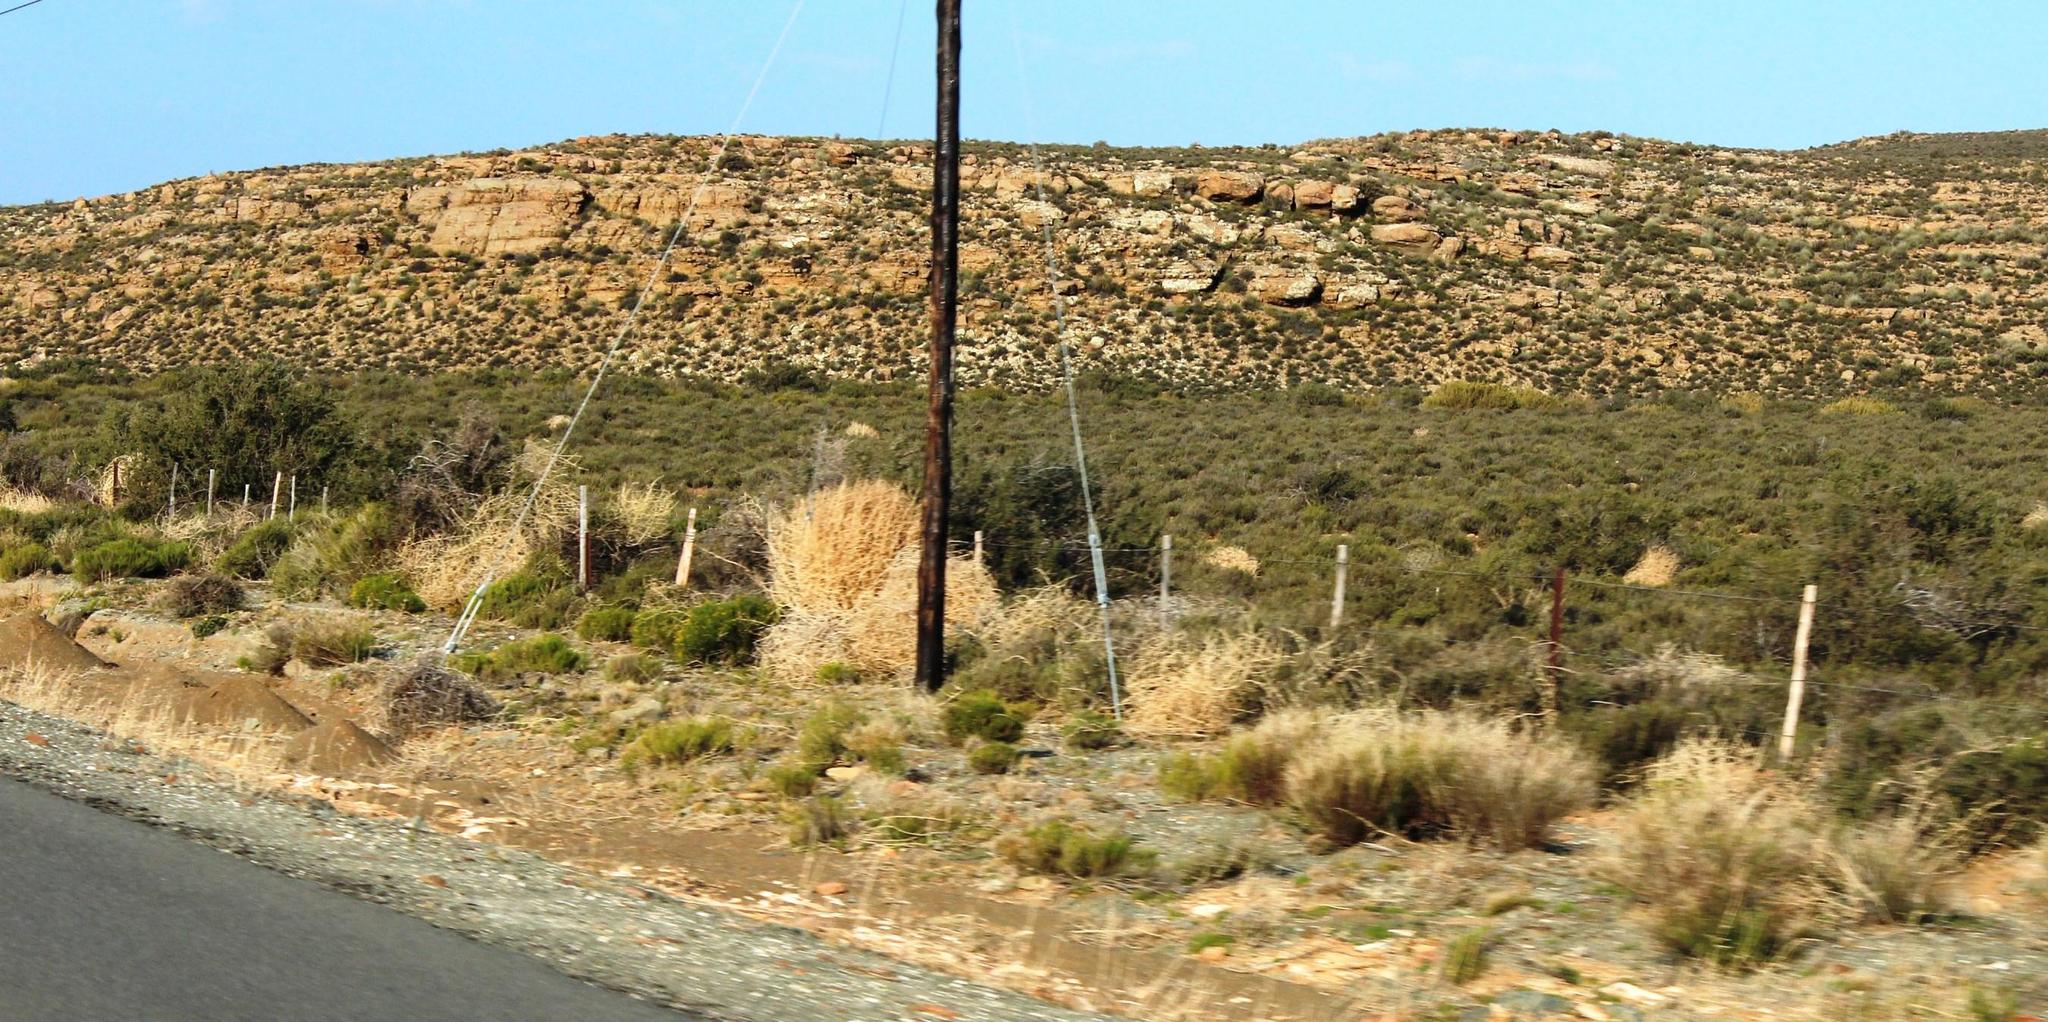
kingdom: Plantae
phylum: Tracheophyta
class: Magnoliopsida
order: Caryophyllales
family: Amaranthaceae
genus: Salsola
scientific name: Salsola kali
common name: Saltwort
